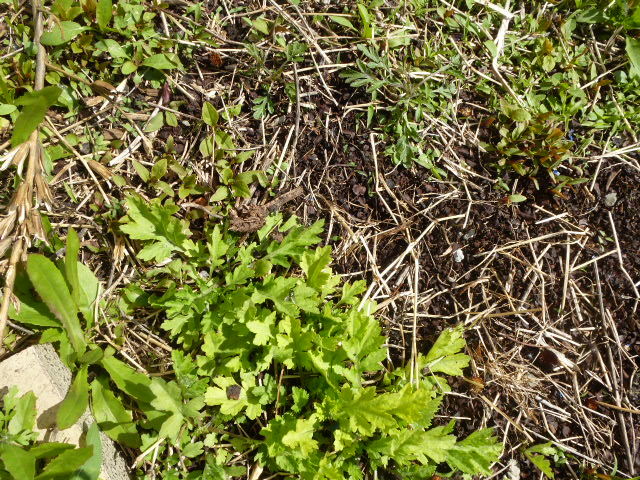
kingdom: Plantae
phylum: Tracheophyta
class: Magnoliopsida
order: Asterales
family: Asteraceae
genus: Artemisia
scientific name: Artemisia vulgaris
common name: Mugwort
